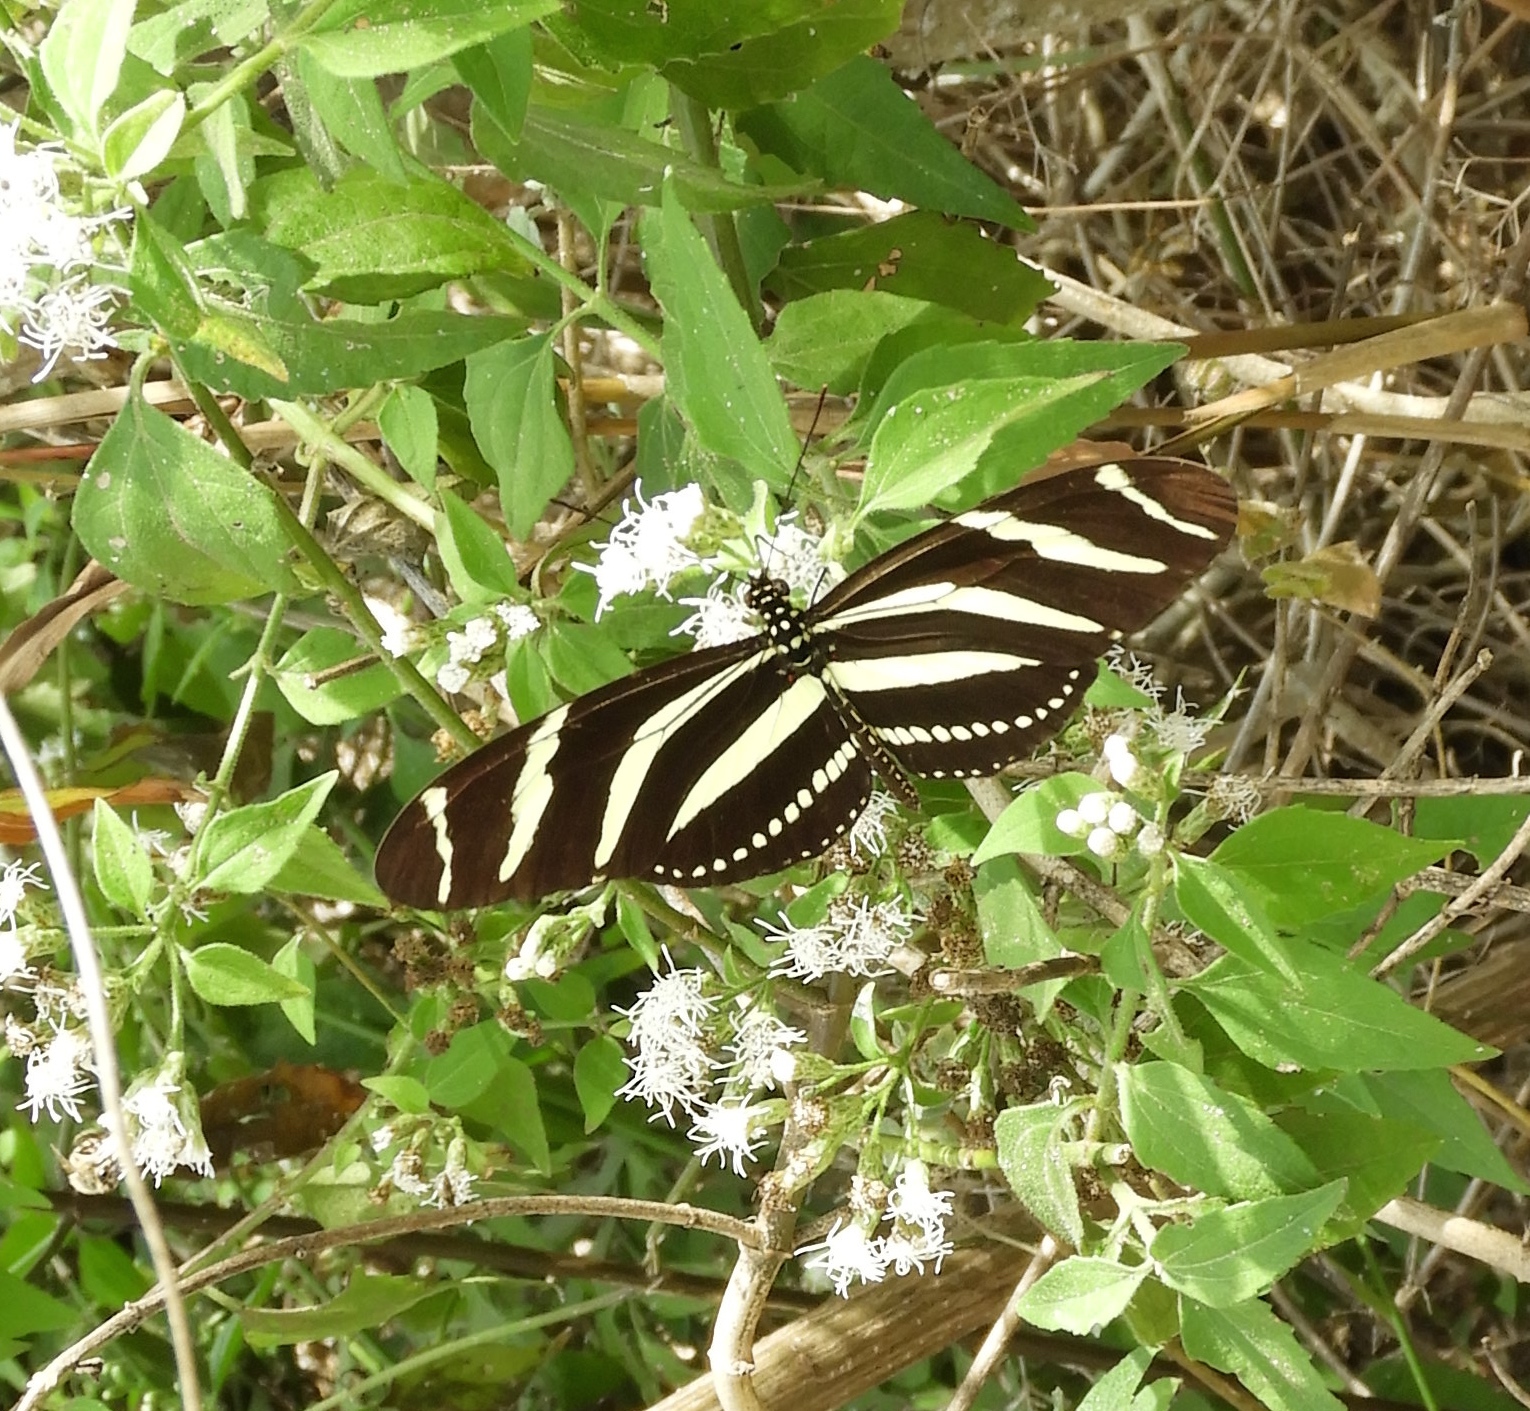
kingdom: Animalia
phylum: Arthropoda
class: Insecta
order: Lepidoptera
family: Nymphalidae
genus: Heliconius
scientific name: Heliconius charithonia
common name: Zebra long wing
